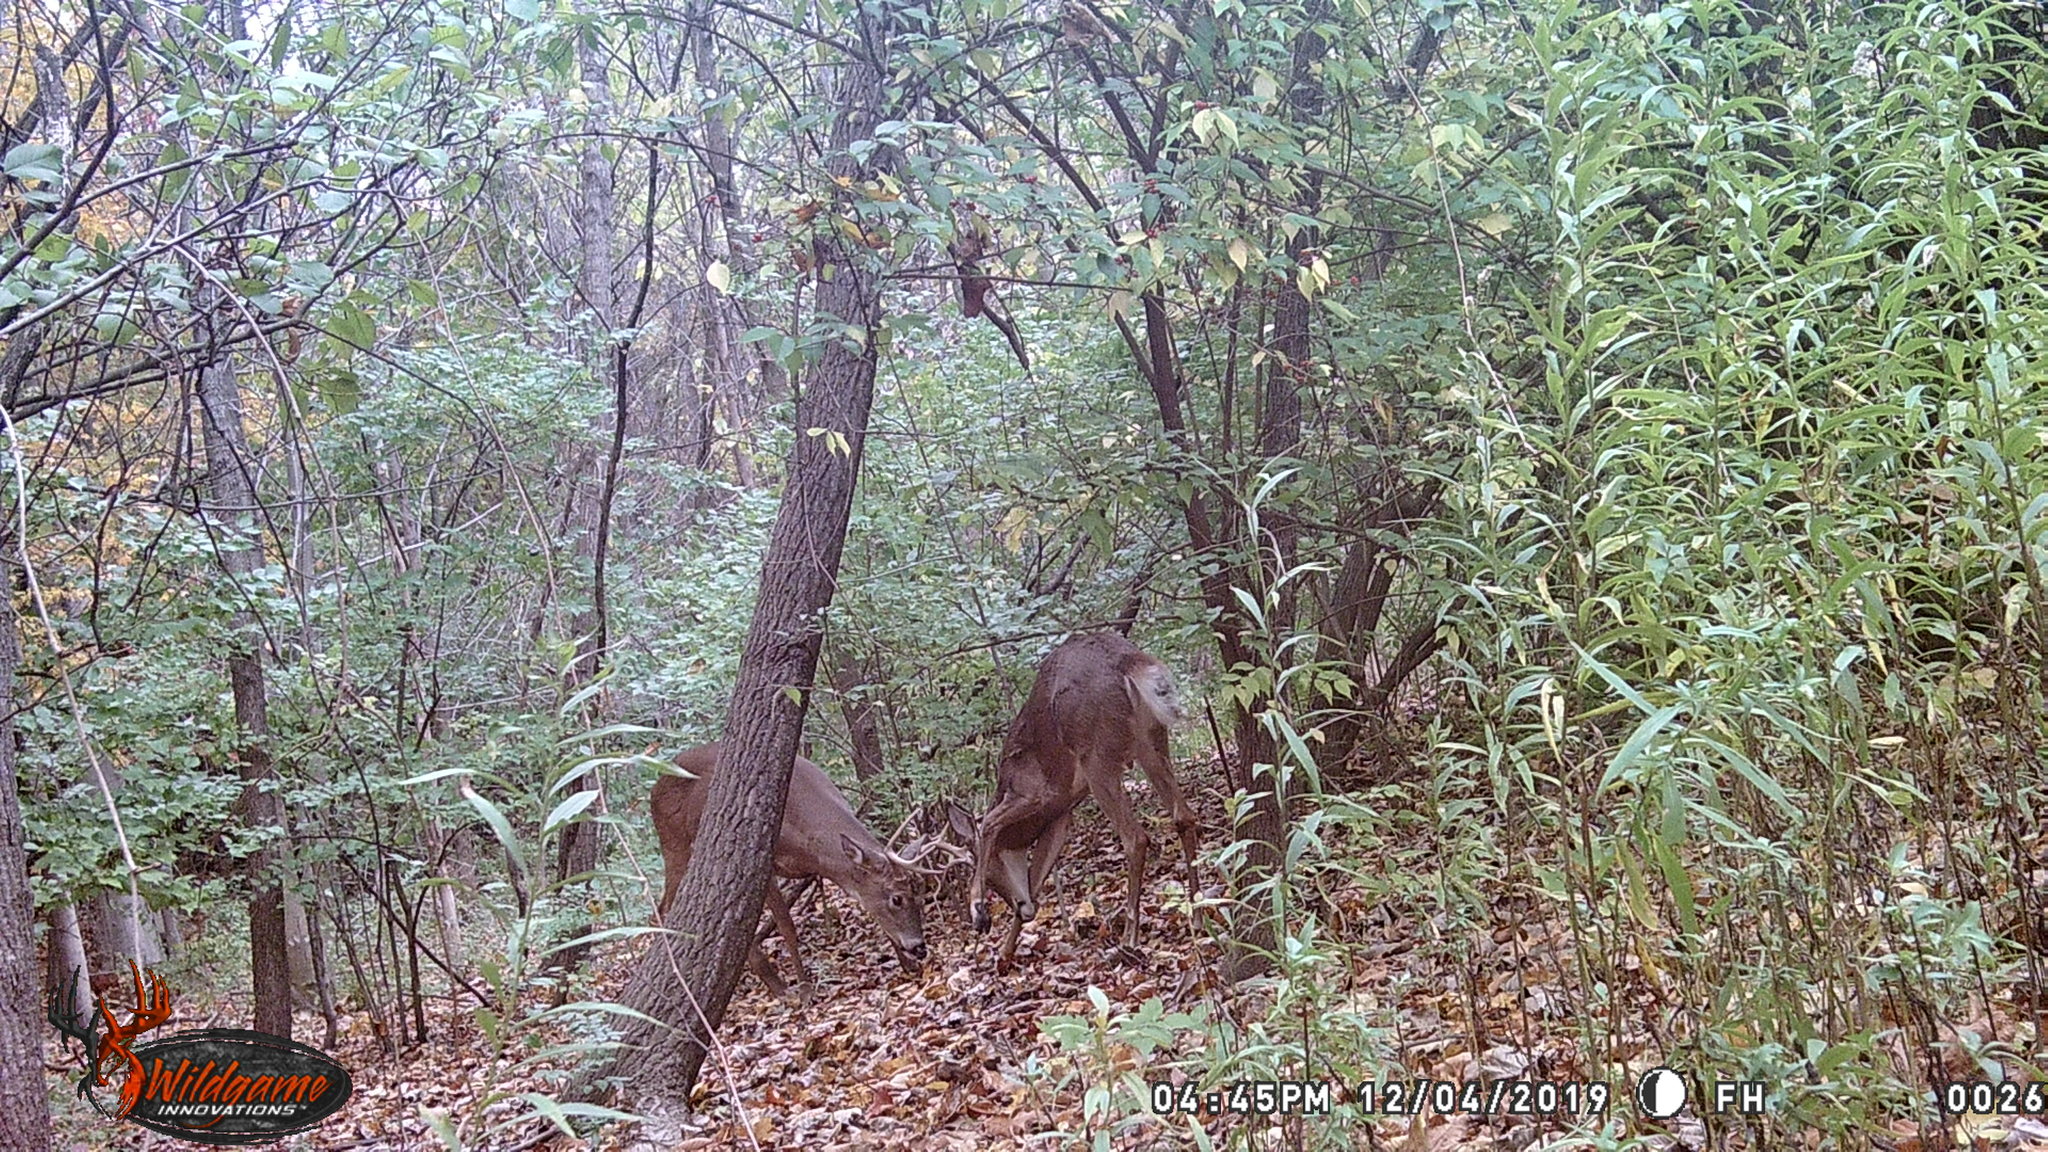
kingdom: Animalia
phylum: Chordata
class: Mammalia
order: Artiodactyla
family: Cervidae
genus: Odocoileus
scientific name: Odocoileus virginianus
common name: White-tailed deer
